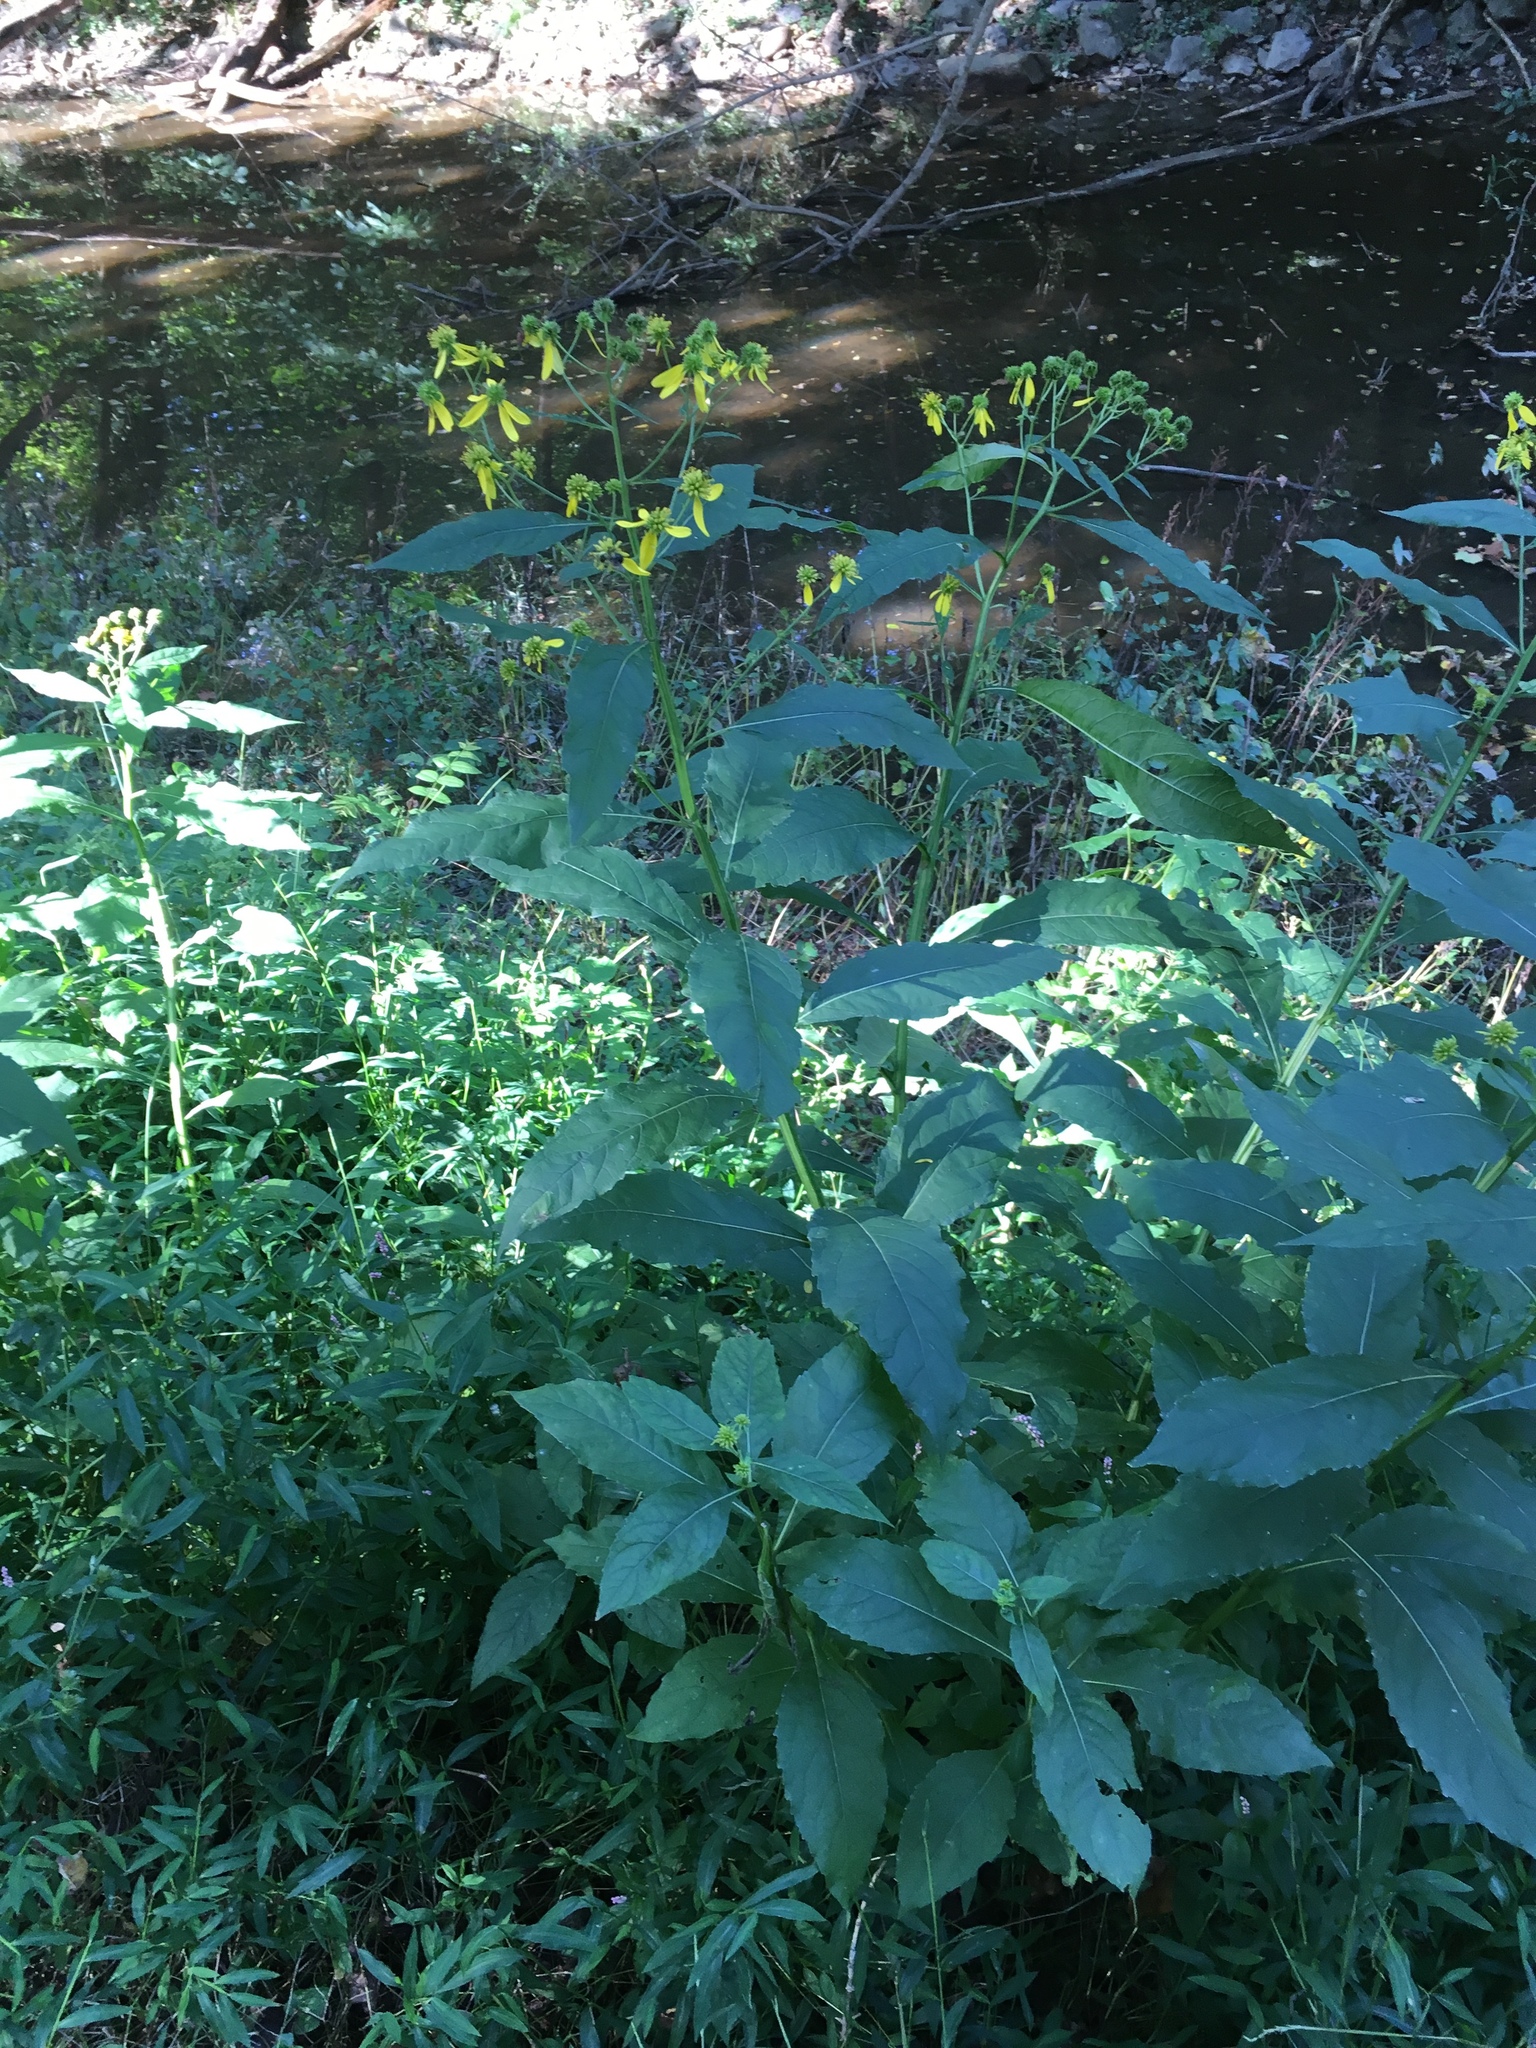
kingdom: Plantae
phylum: Tracheophyta
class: Magnoliopsida
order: Asterales
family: Asteraceae
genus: Verbesina
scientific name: Verbesina alternifolia
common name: Wingstem
